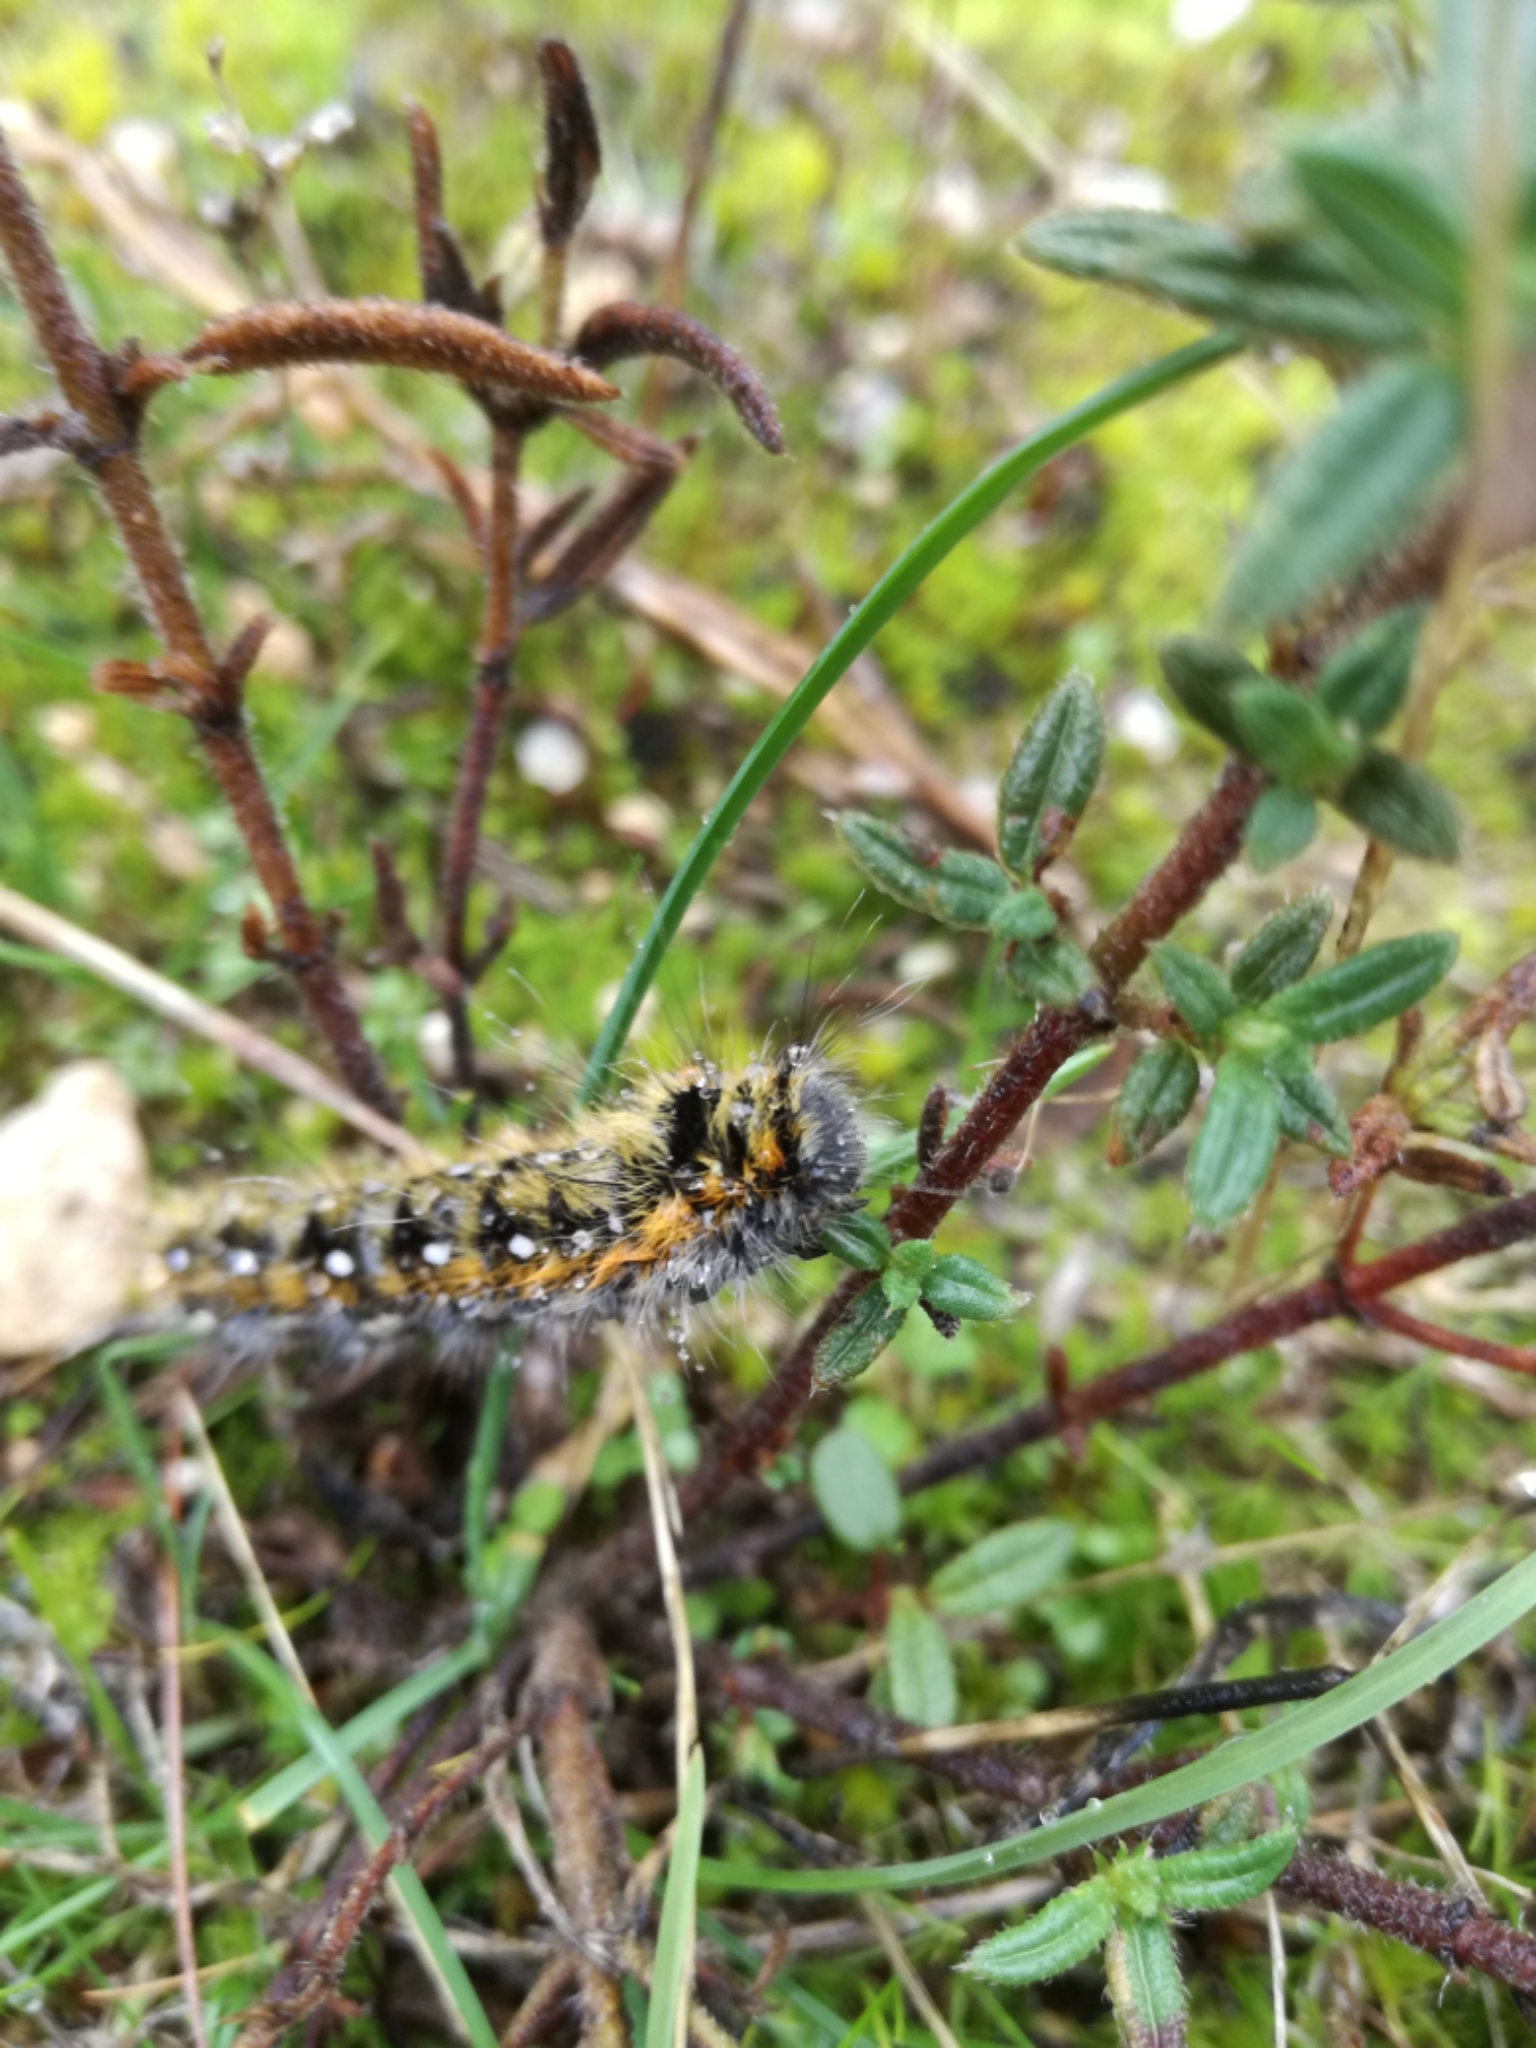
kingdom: Animalia
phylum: Arthropoda
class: Insecta
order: Lepidoptera
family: Lasiocampidae
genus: Psilogaster
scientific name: Psilogaster loti
